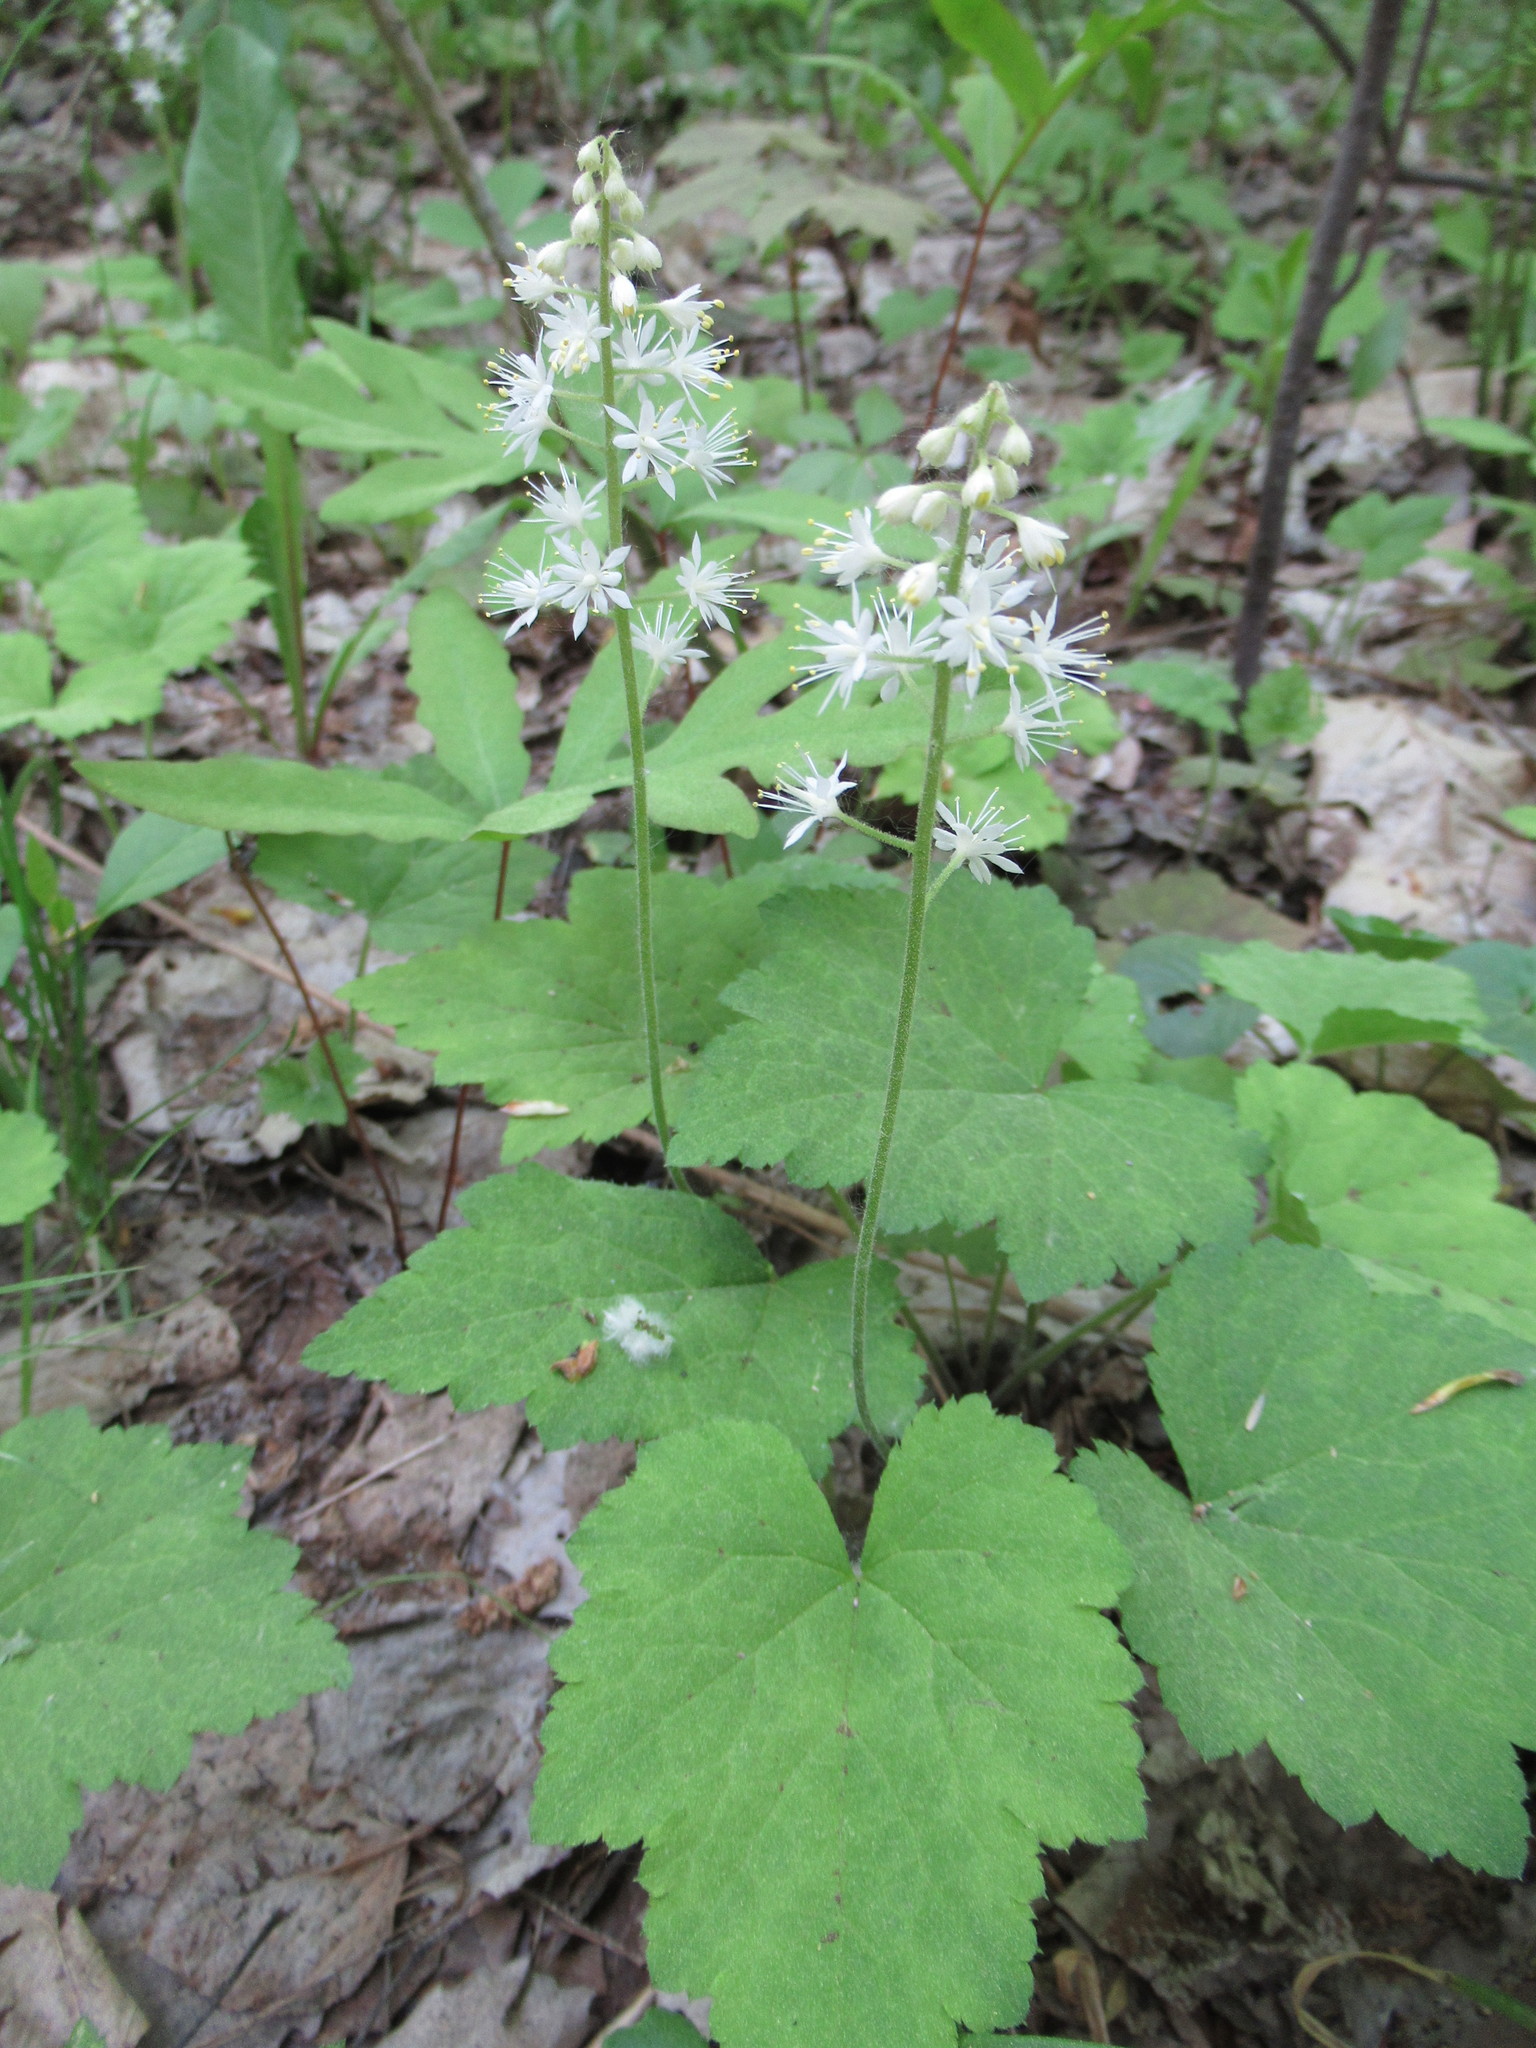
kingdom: Plantae
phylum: Tracheophyta
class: Magnoliopsida
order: Saxifragales
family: Saxifragaceae
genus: Tiarella
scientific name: Tiarella stolonifera
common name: Stoloniferous foamflower
